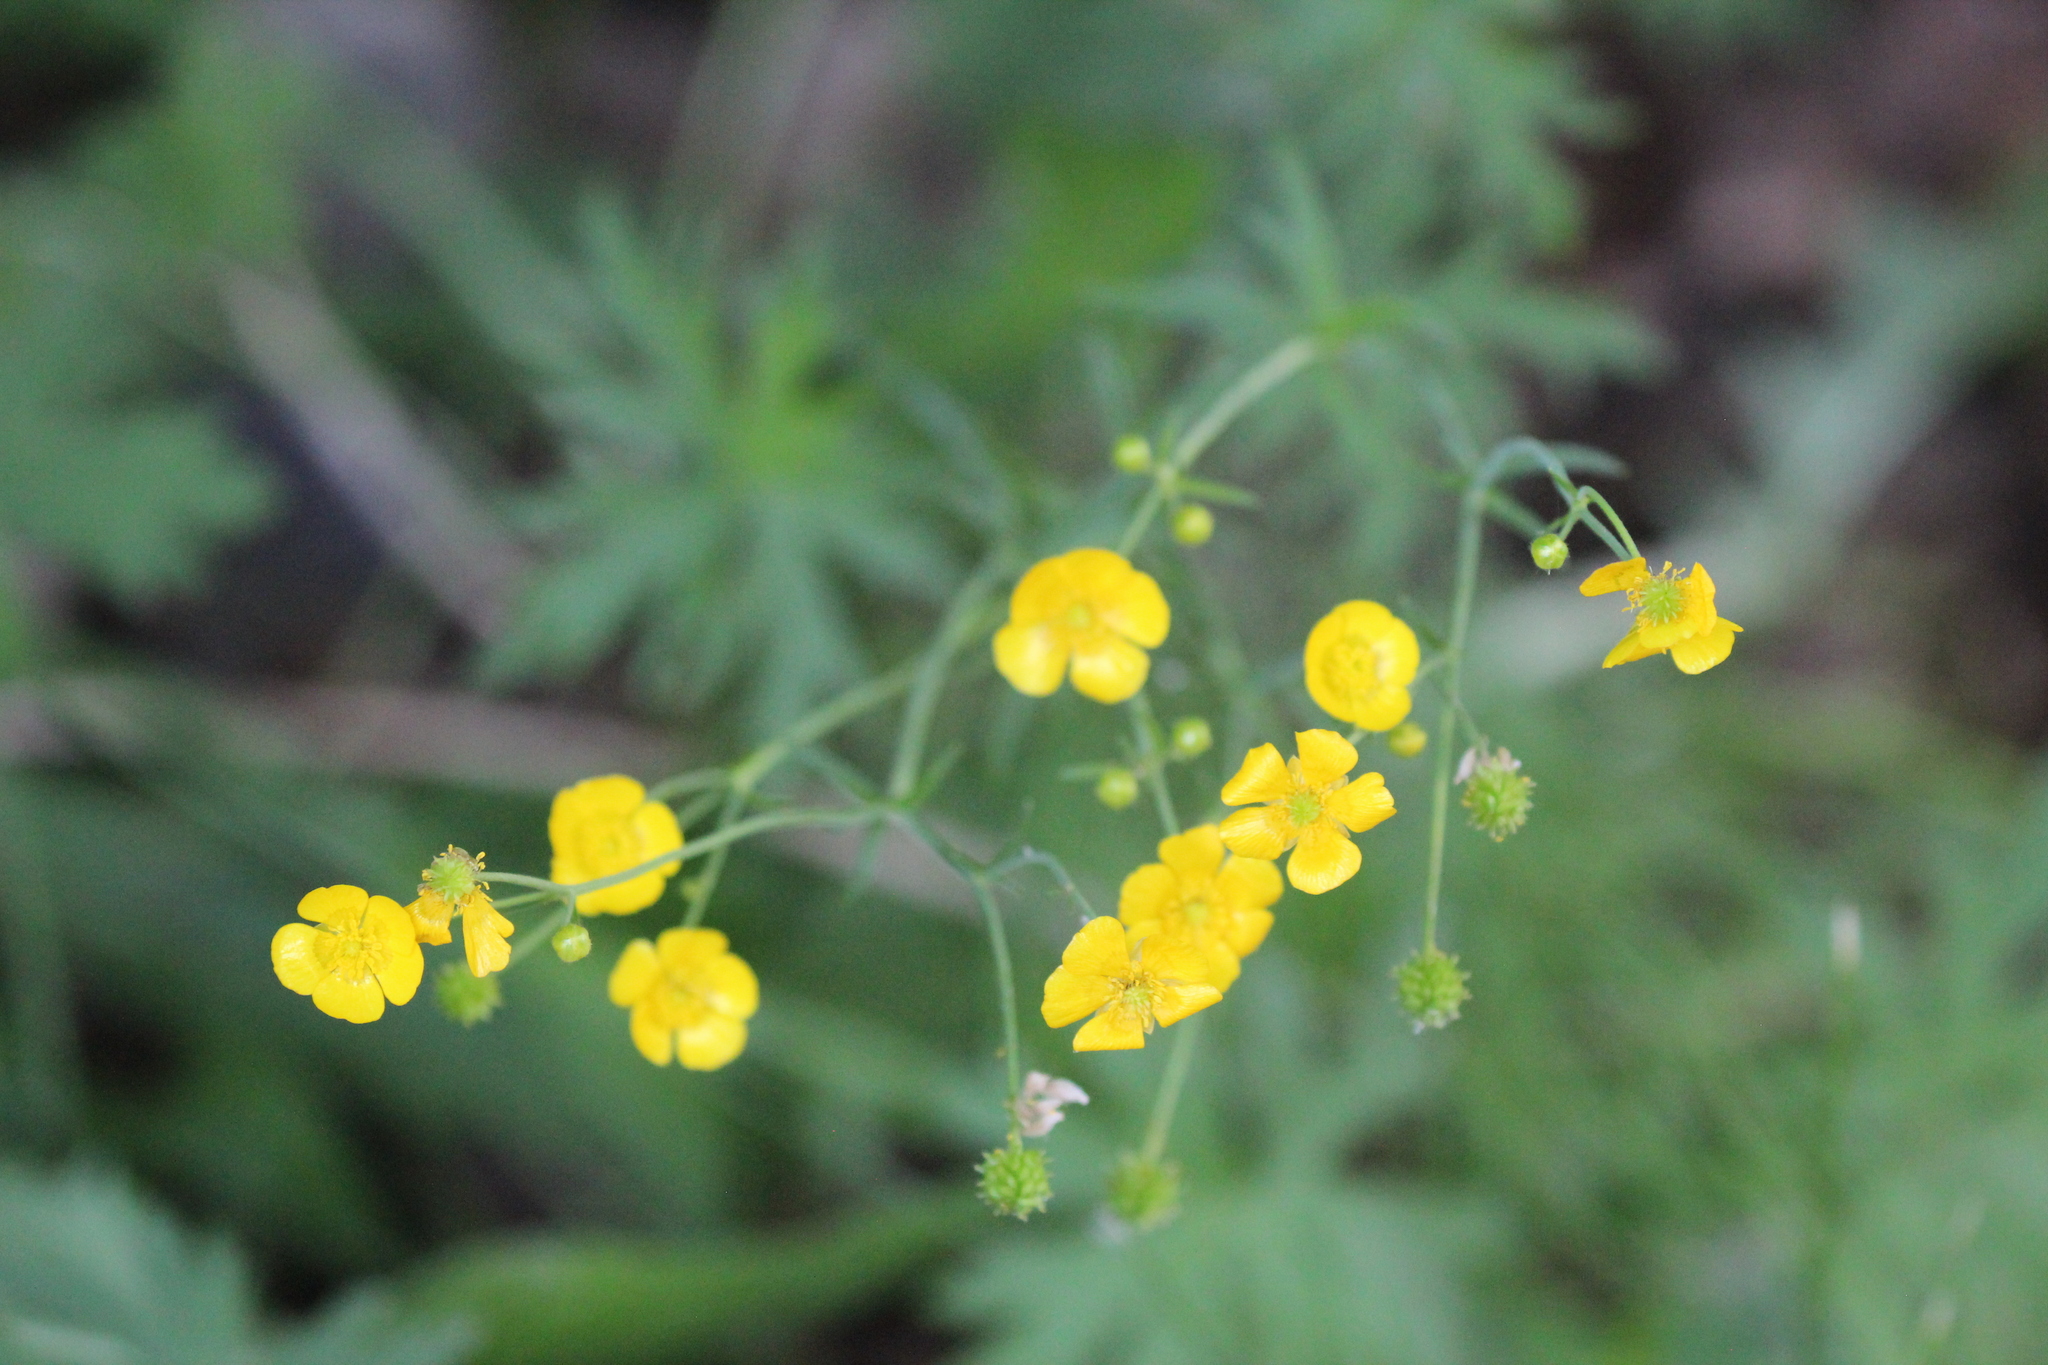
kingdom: Plantae
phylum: Tracheophyta
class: Magnoliopsida
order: Ranunculales
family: Ranunculaceae
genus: Ranunculus
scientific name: Ranunculus acris
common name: Meadow buttercup
